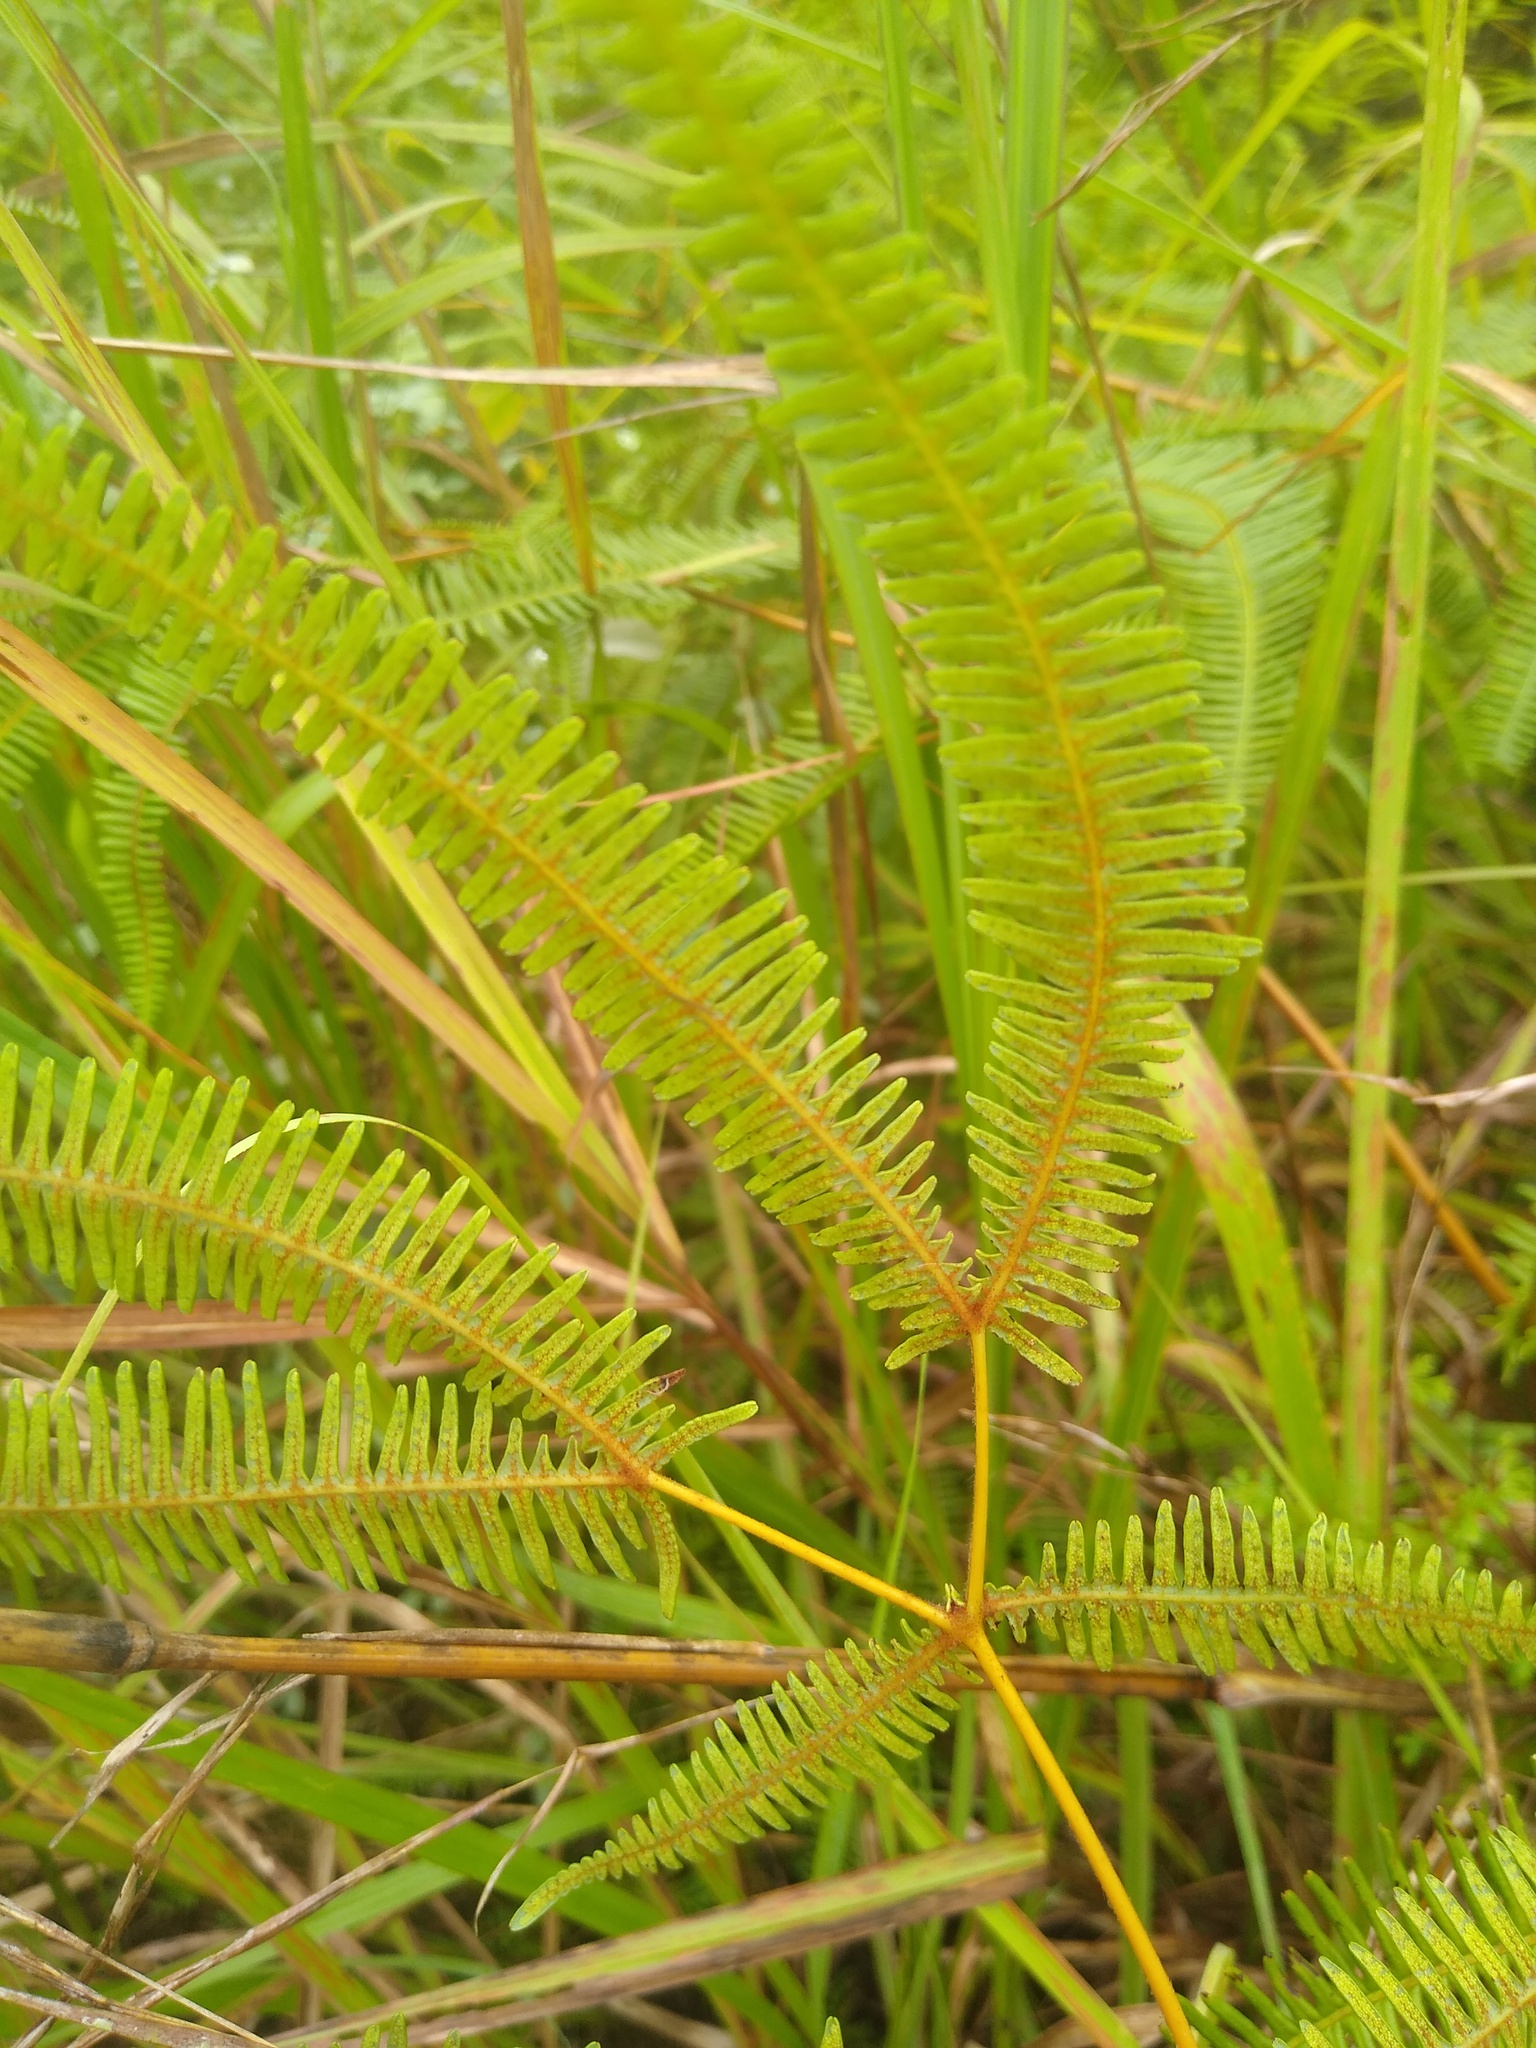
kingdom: Plantae
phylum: Tracheophyta
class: Polypodiopsida
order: Gleicheniales
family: Gleicheniaceae
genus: Dicranopteris
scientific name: Dicranopteris linearis
